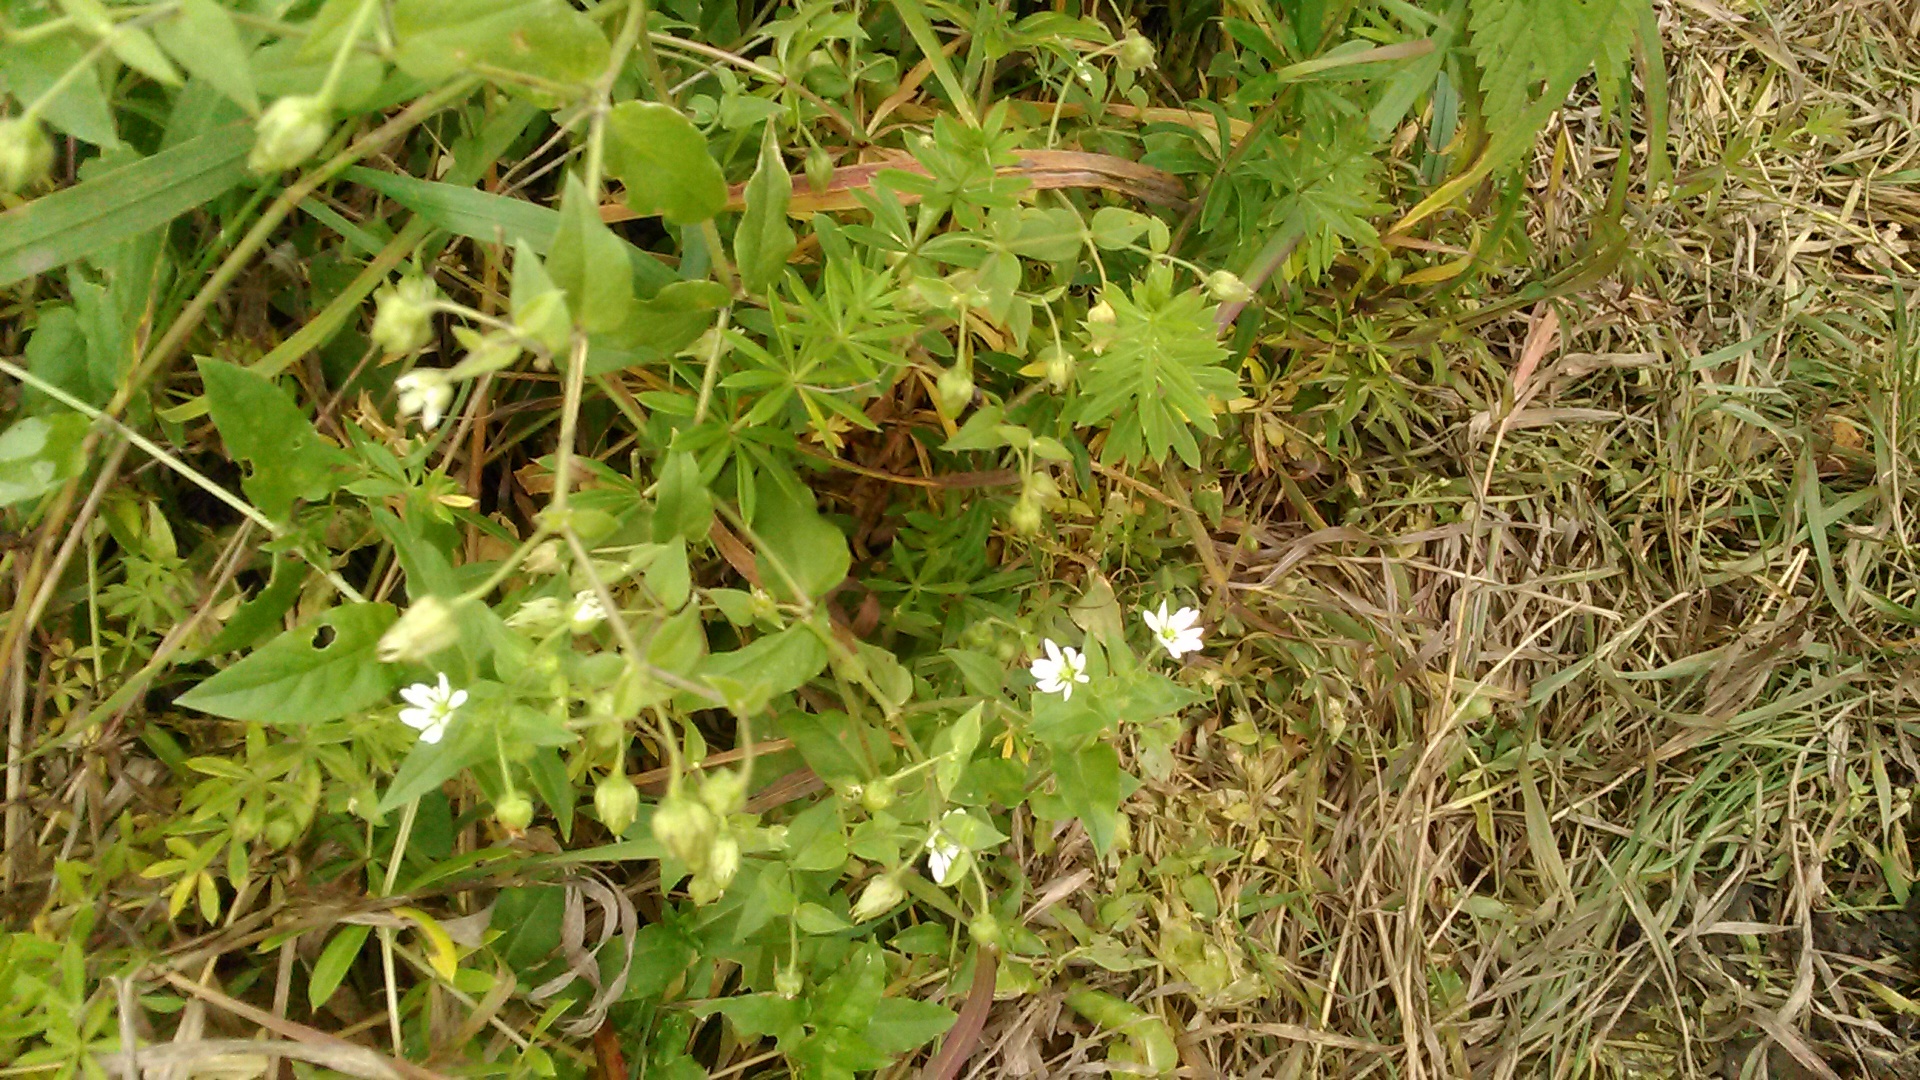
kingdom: Plantae
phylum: Tracheophyta
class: Magnoliopsida
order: Caryophyllales
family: Caryophyllaceae
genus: Stellaria
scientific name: Stellaria aquatica
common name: Water chickweed
